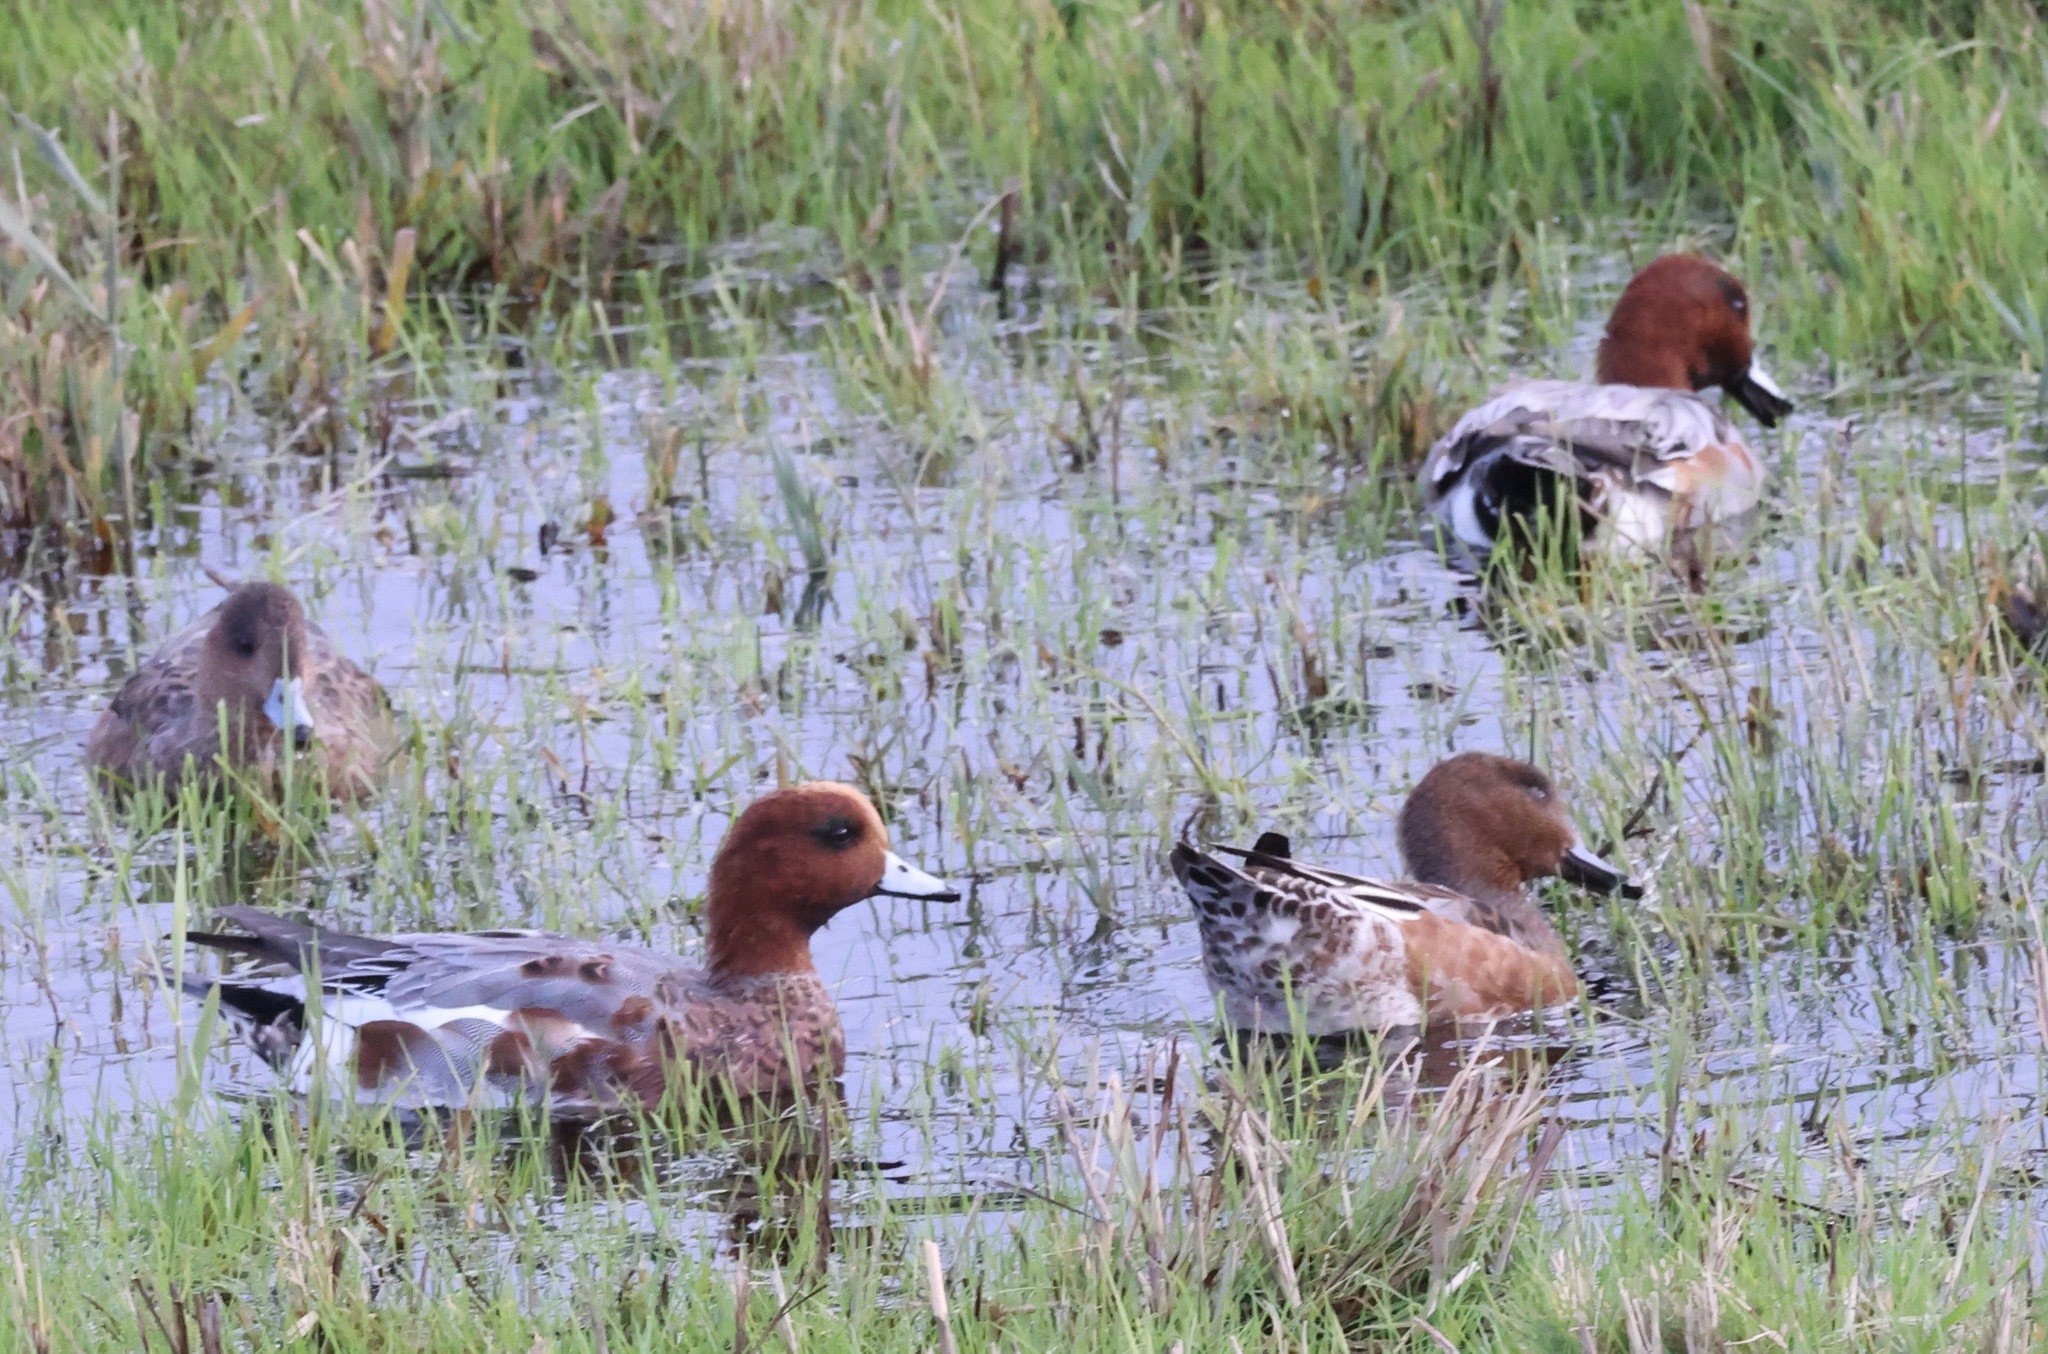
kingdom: Animalia
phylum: Chordata
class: Aves
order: Anseriformes
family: Anatidae
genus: Mareca
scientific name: Mareca penelope
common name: Eurasian wigeon
